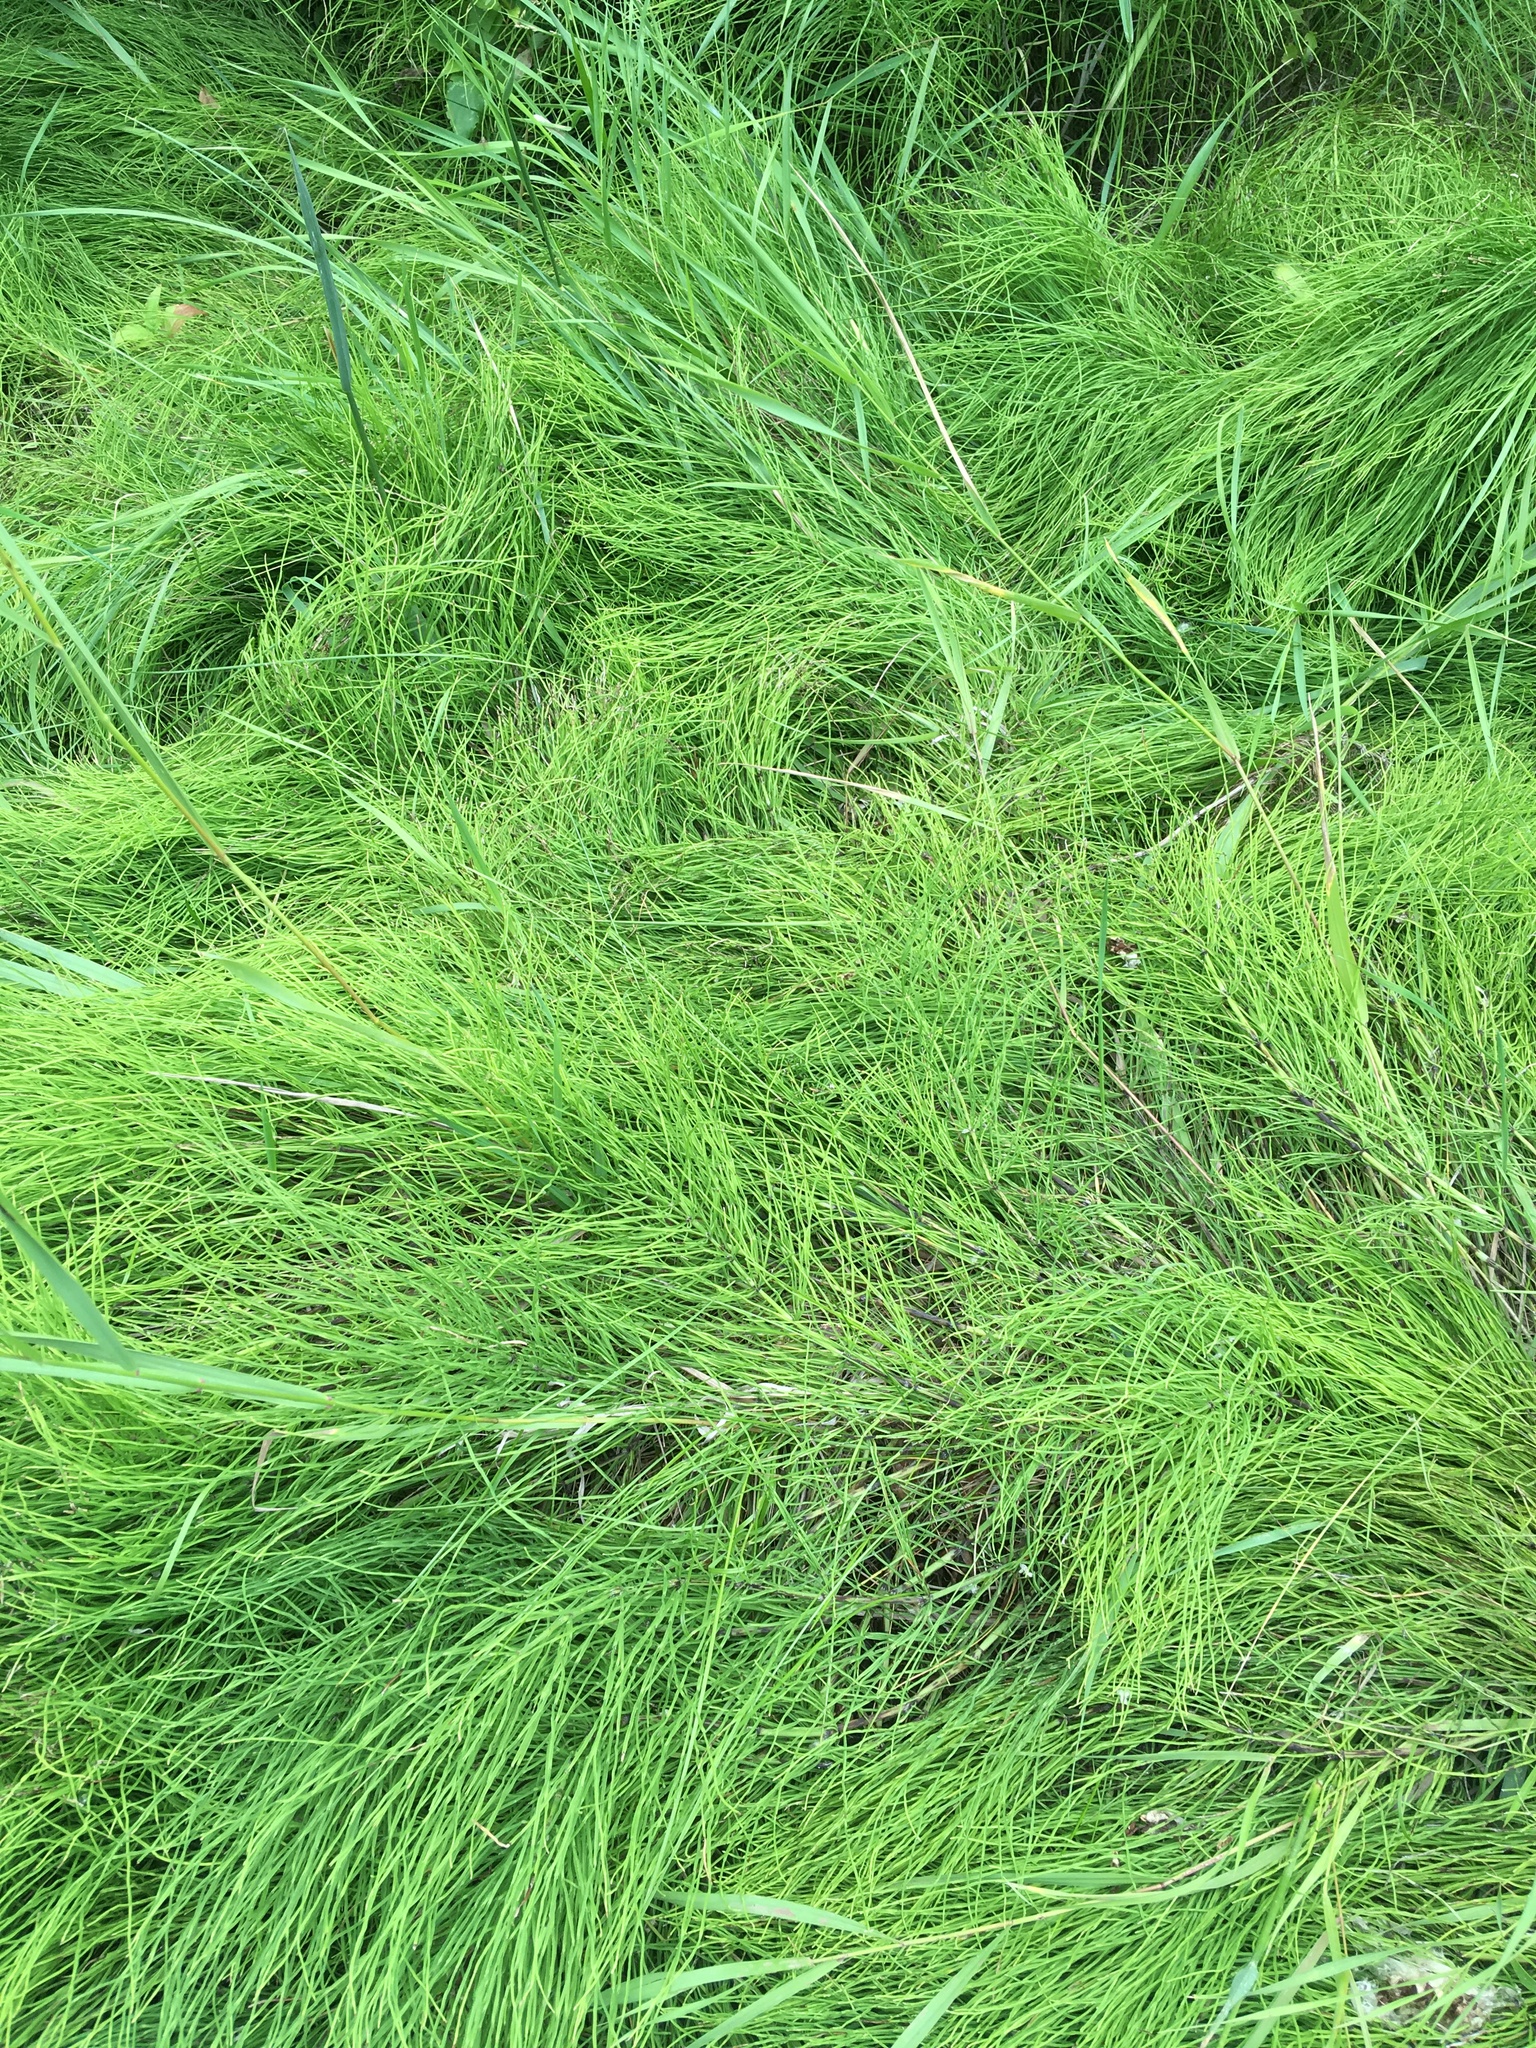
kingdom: Plantae
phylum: Tracheophyta
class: Polypodiopsida
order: Equisetales
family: Equisetaceae
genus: Equisetum
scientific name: Equisetum arvense
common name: Field horsetail
